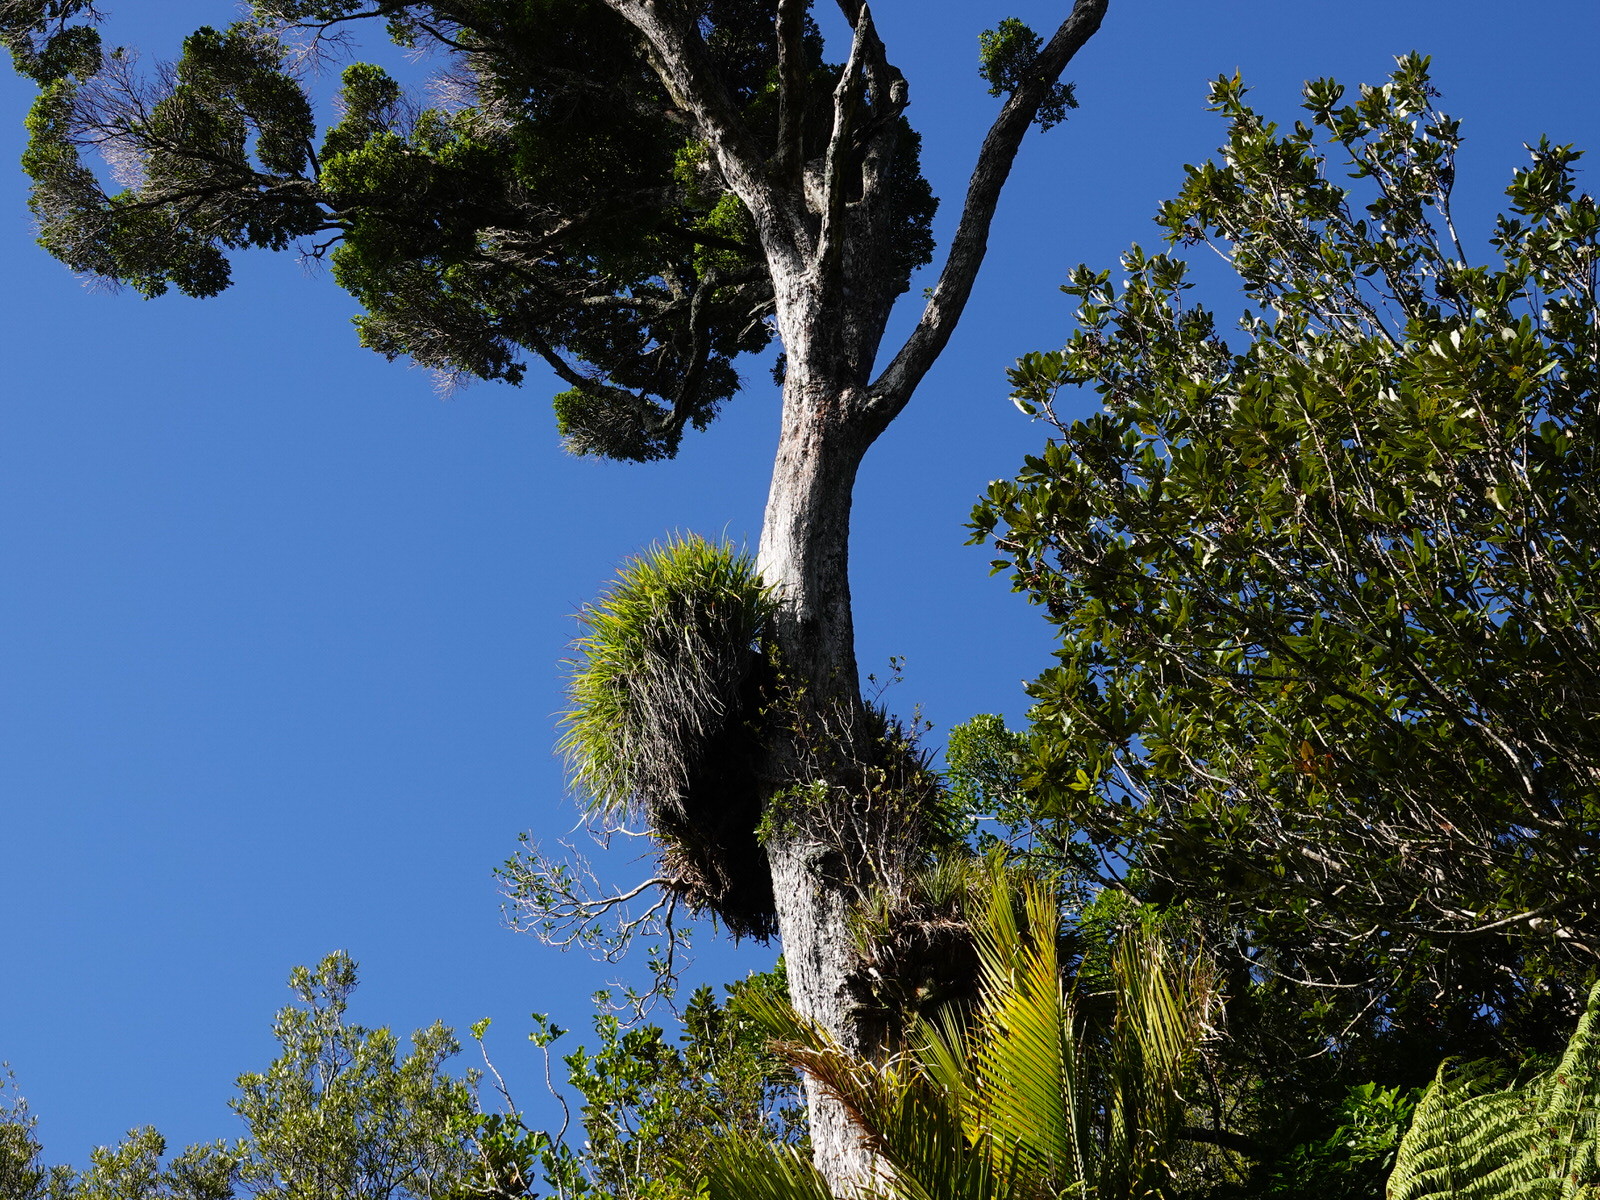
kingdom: Plantae
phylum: Tracheophyta
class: Magnoliopsida
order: Asterales
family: Asteraceae
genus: Brachyglottis
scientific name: Brachyglottis kirkii
